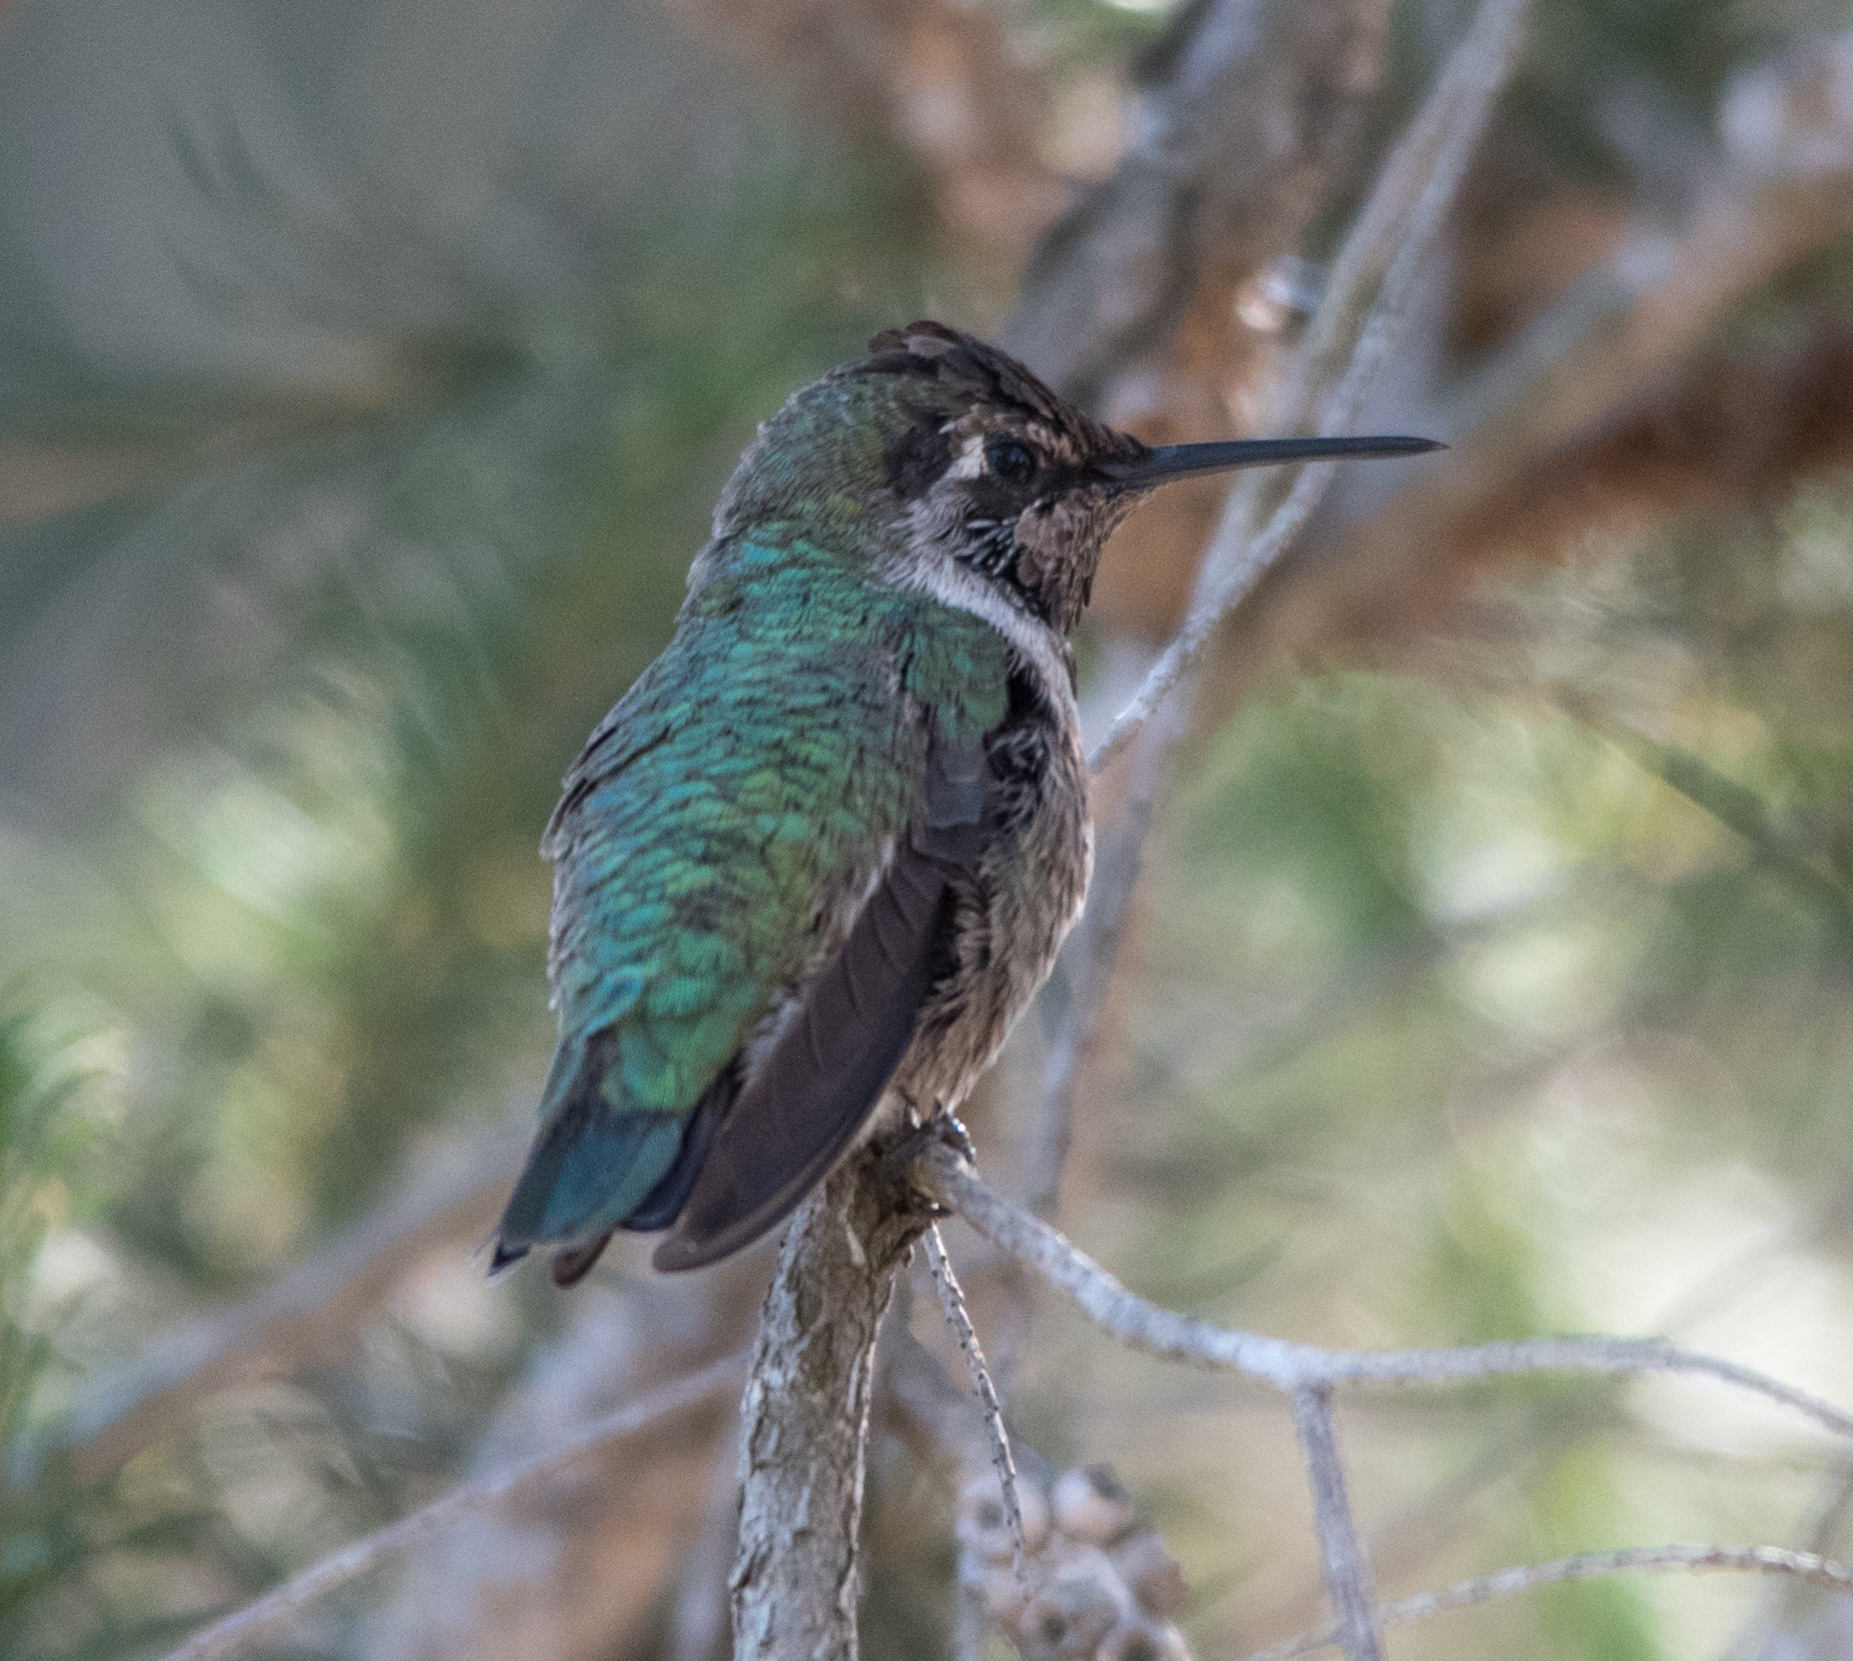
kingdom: Animalia
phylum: Chordata
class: Aves
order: Apodiformes
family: Trochilidae
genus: Calypte
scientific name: Calypte anna
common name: Anna's hummingbird
